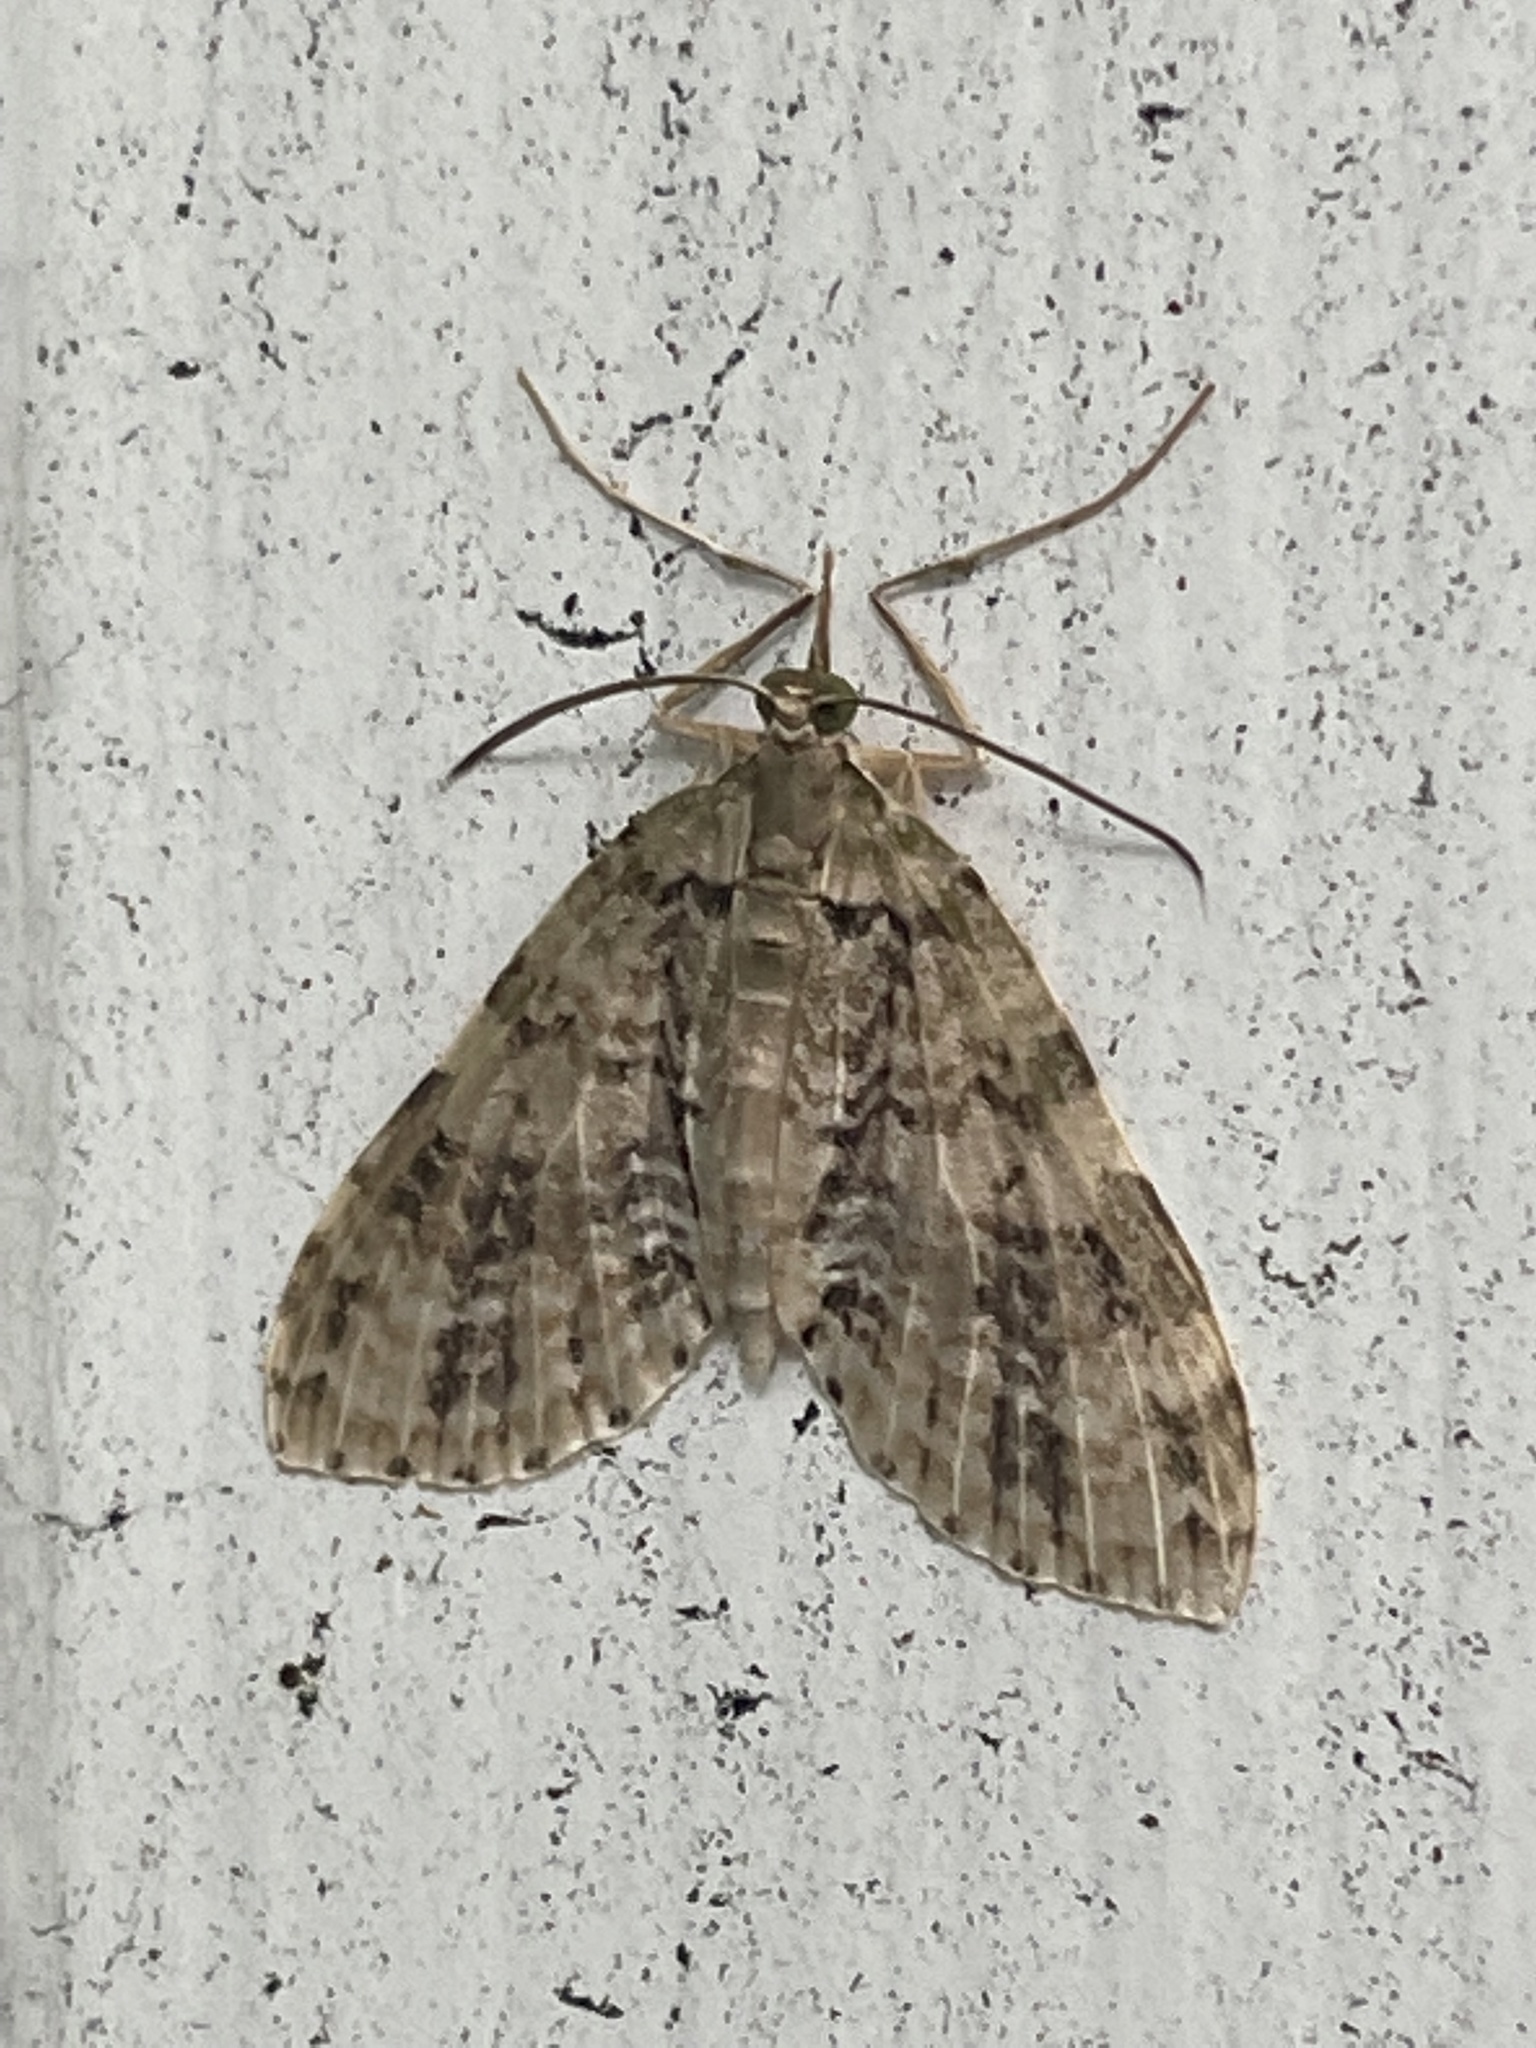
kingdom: Animalia
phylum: Arthropoda
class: Insecta
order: Lepidoptera
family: Geometridae
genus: Sauris
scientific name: Sauris malaca
